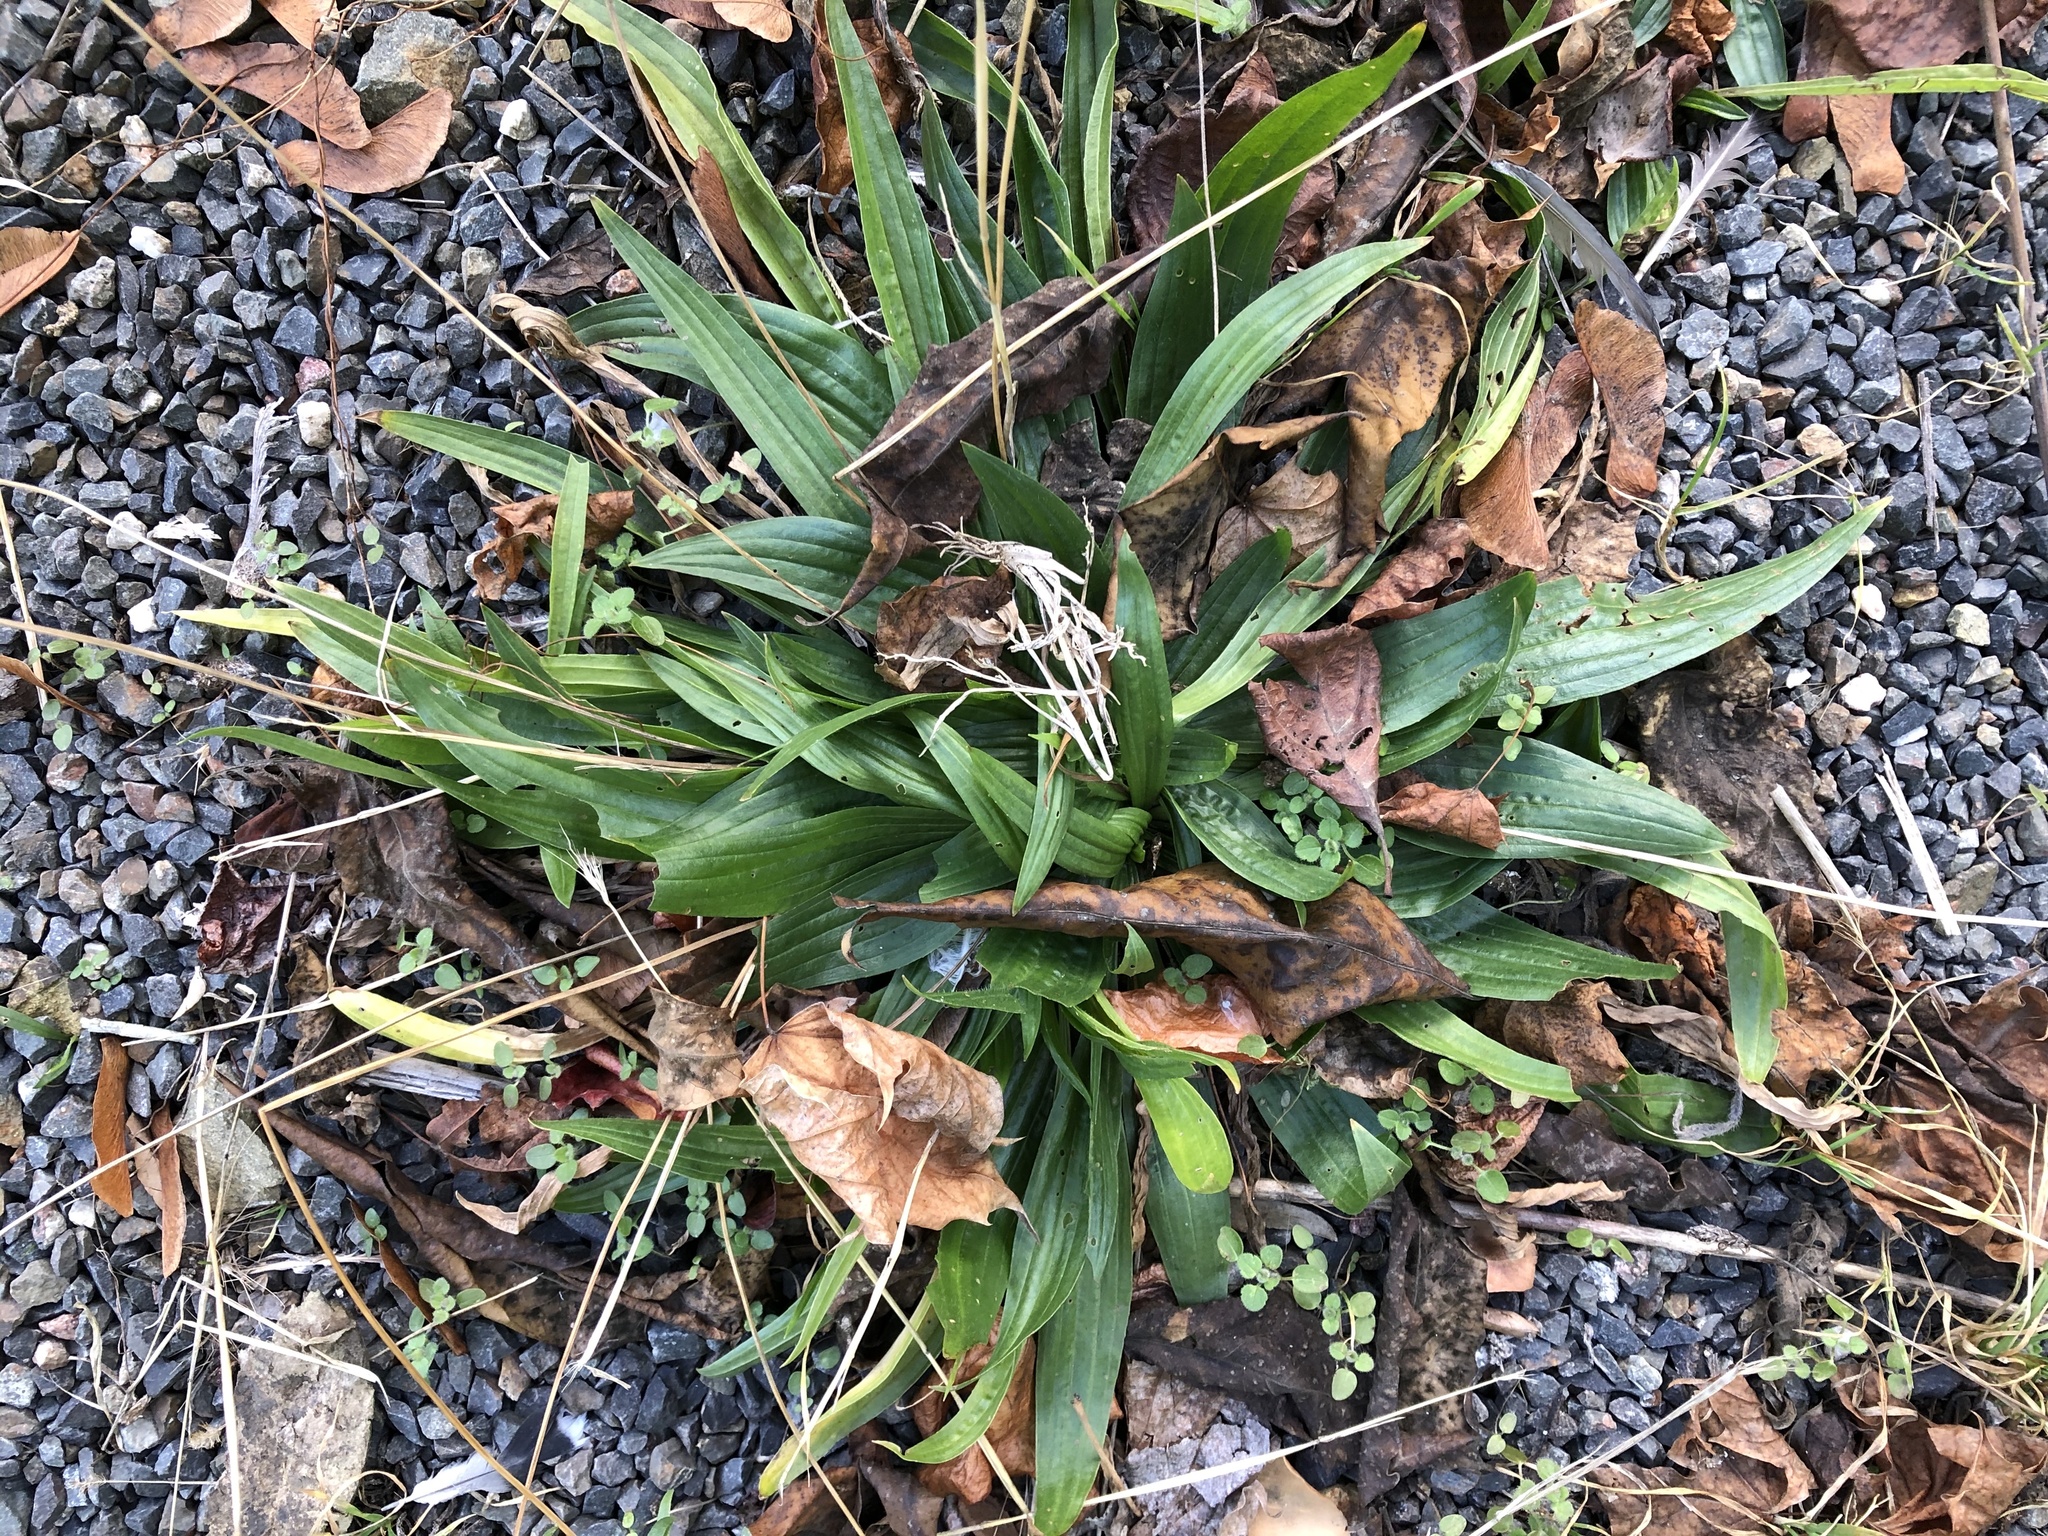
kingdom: Plantae
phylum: Tracheophyta
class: Magnoliopsida
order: Lamiales
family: Plantaginaceae
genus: Plantago
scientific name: Plantago lanceolata
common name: Ribwort plantain
